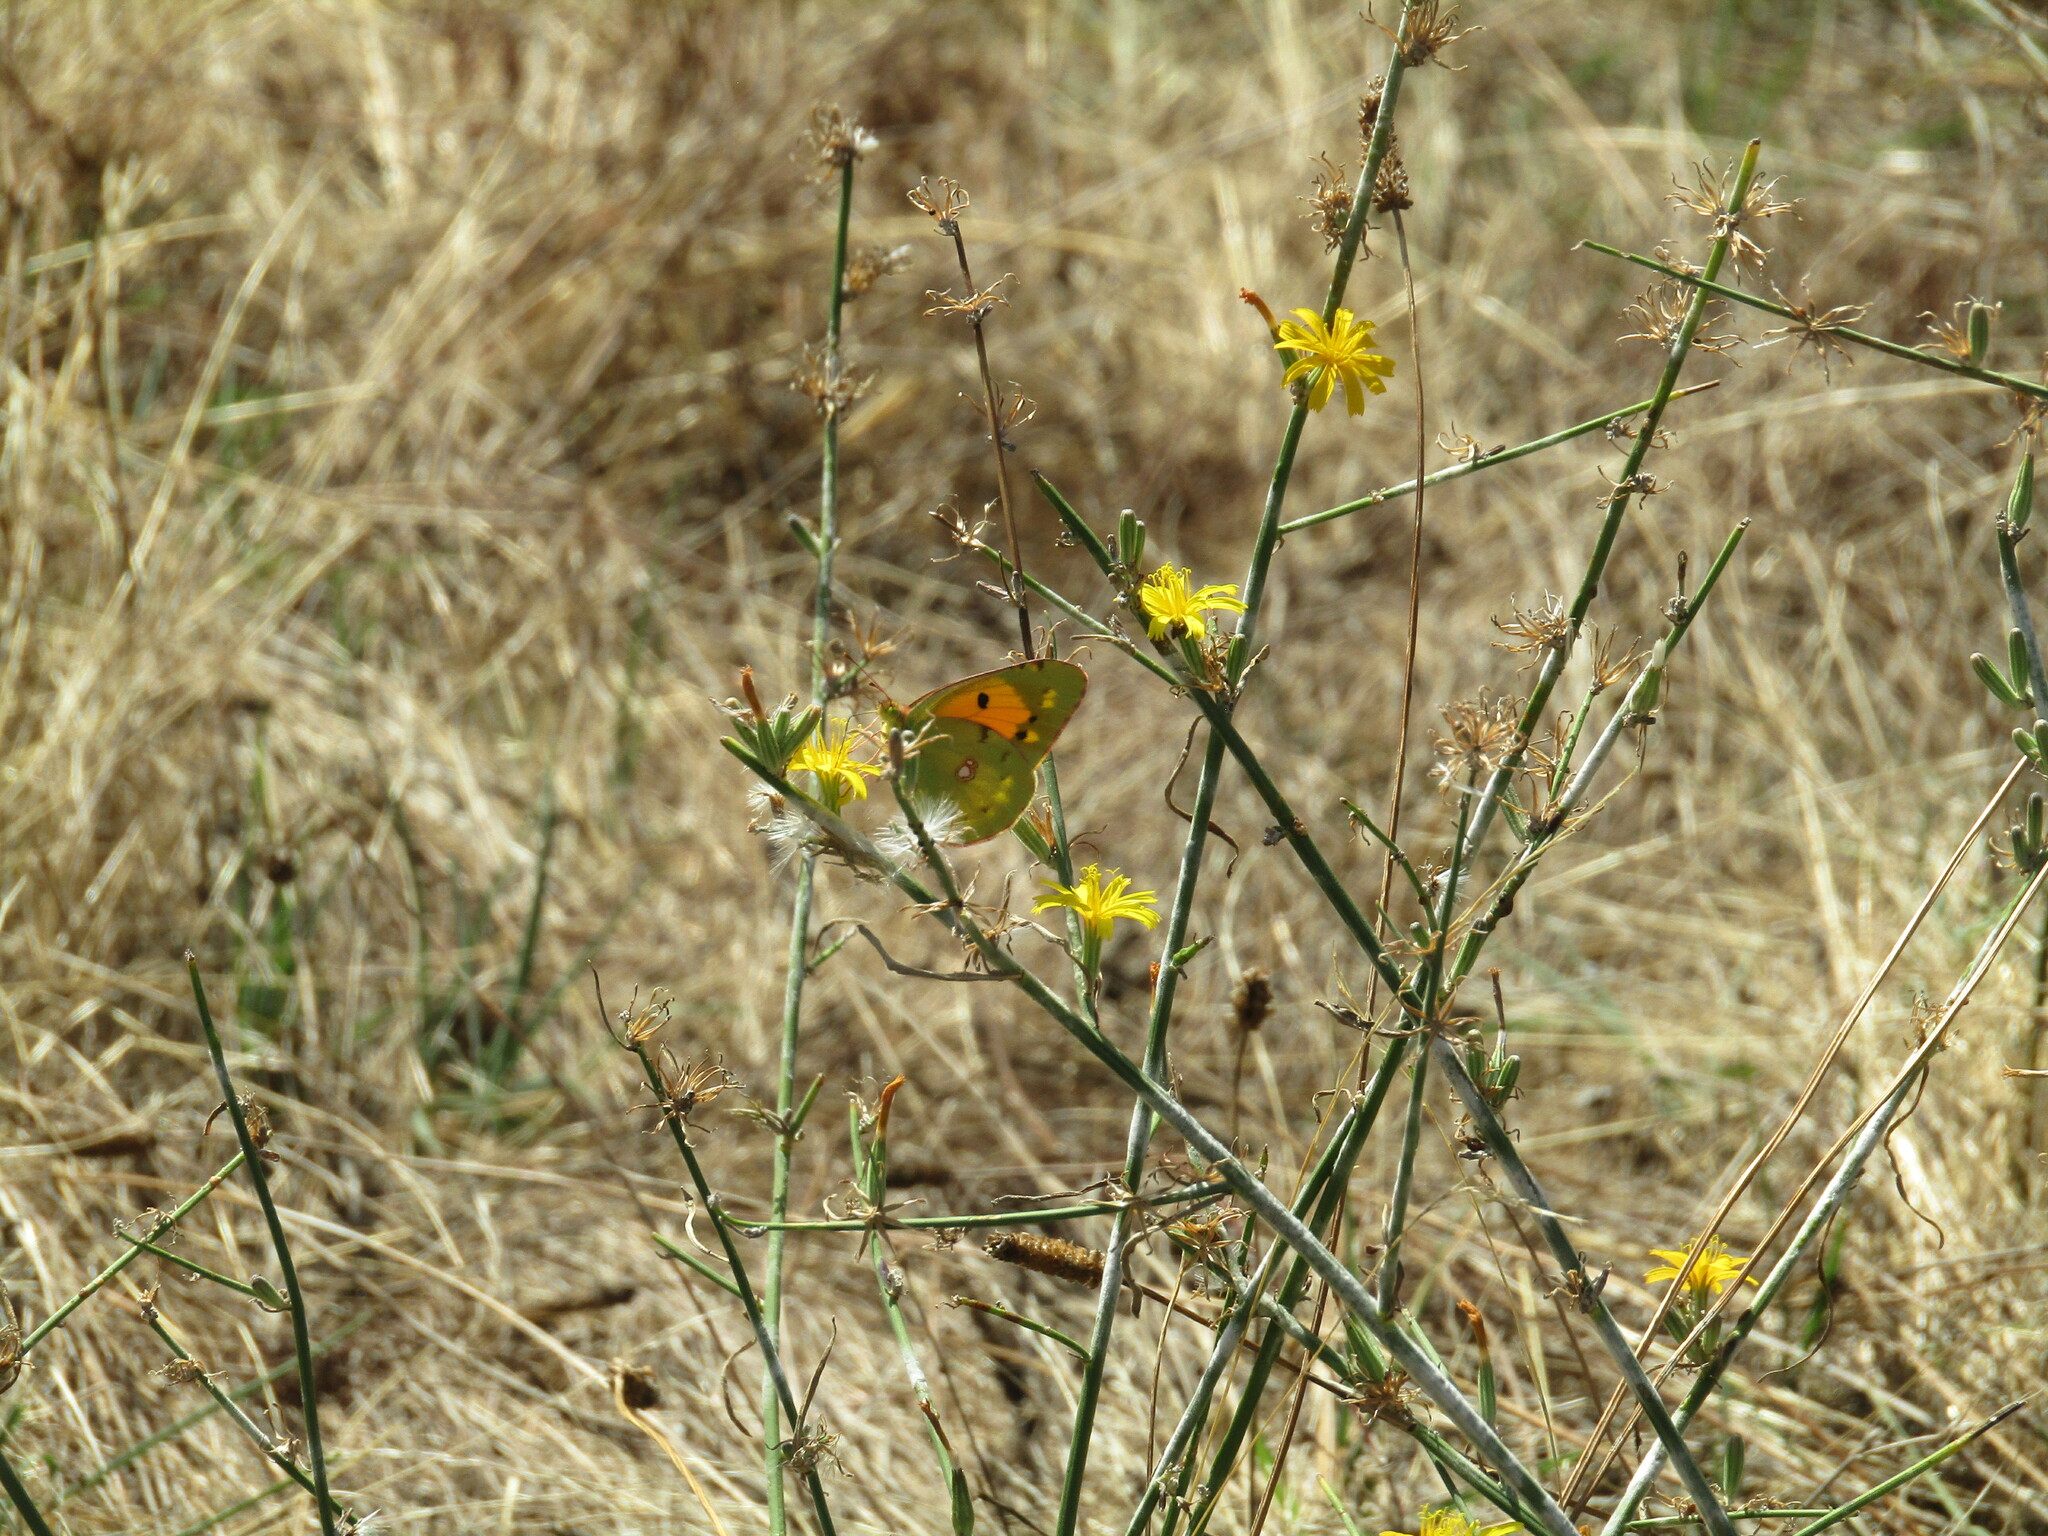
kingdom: Animalia
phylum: Arthropoda
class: Insecta
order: Lepidoptera
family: Pieridae
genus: Colias
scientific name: Colias croceus
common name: Clouded yellow
